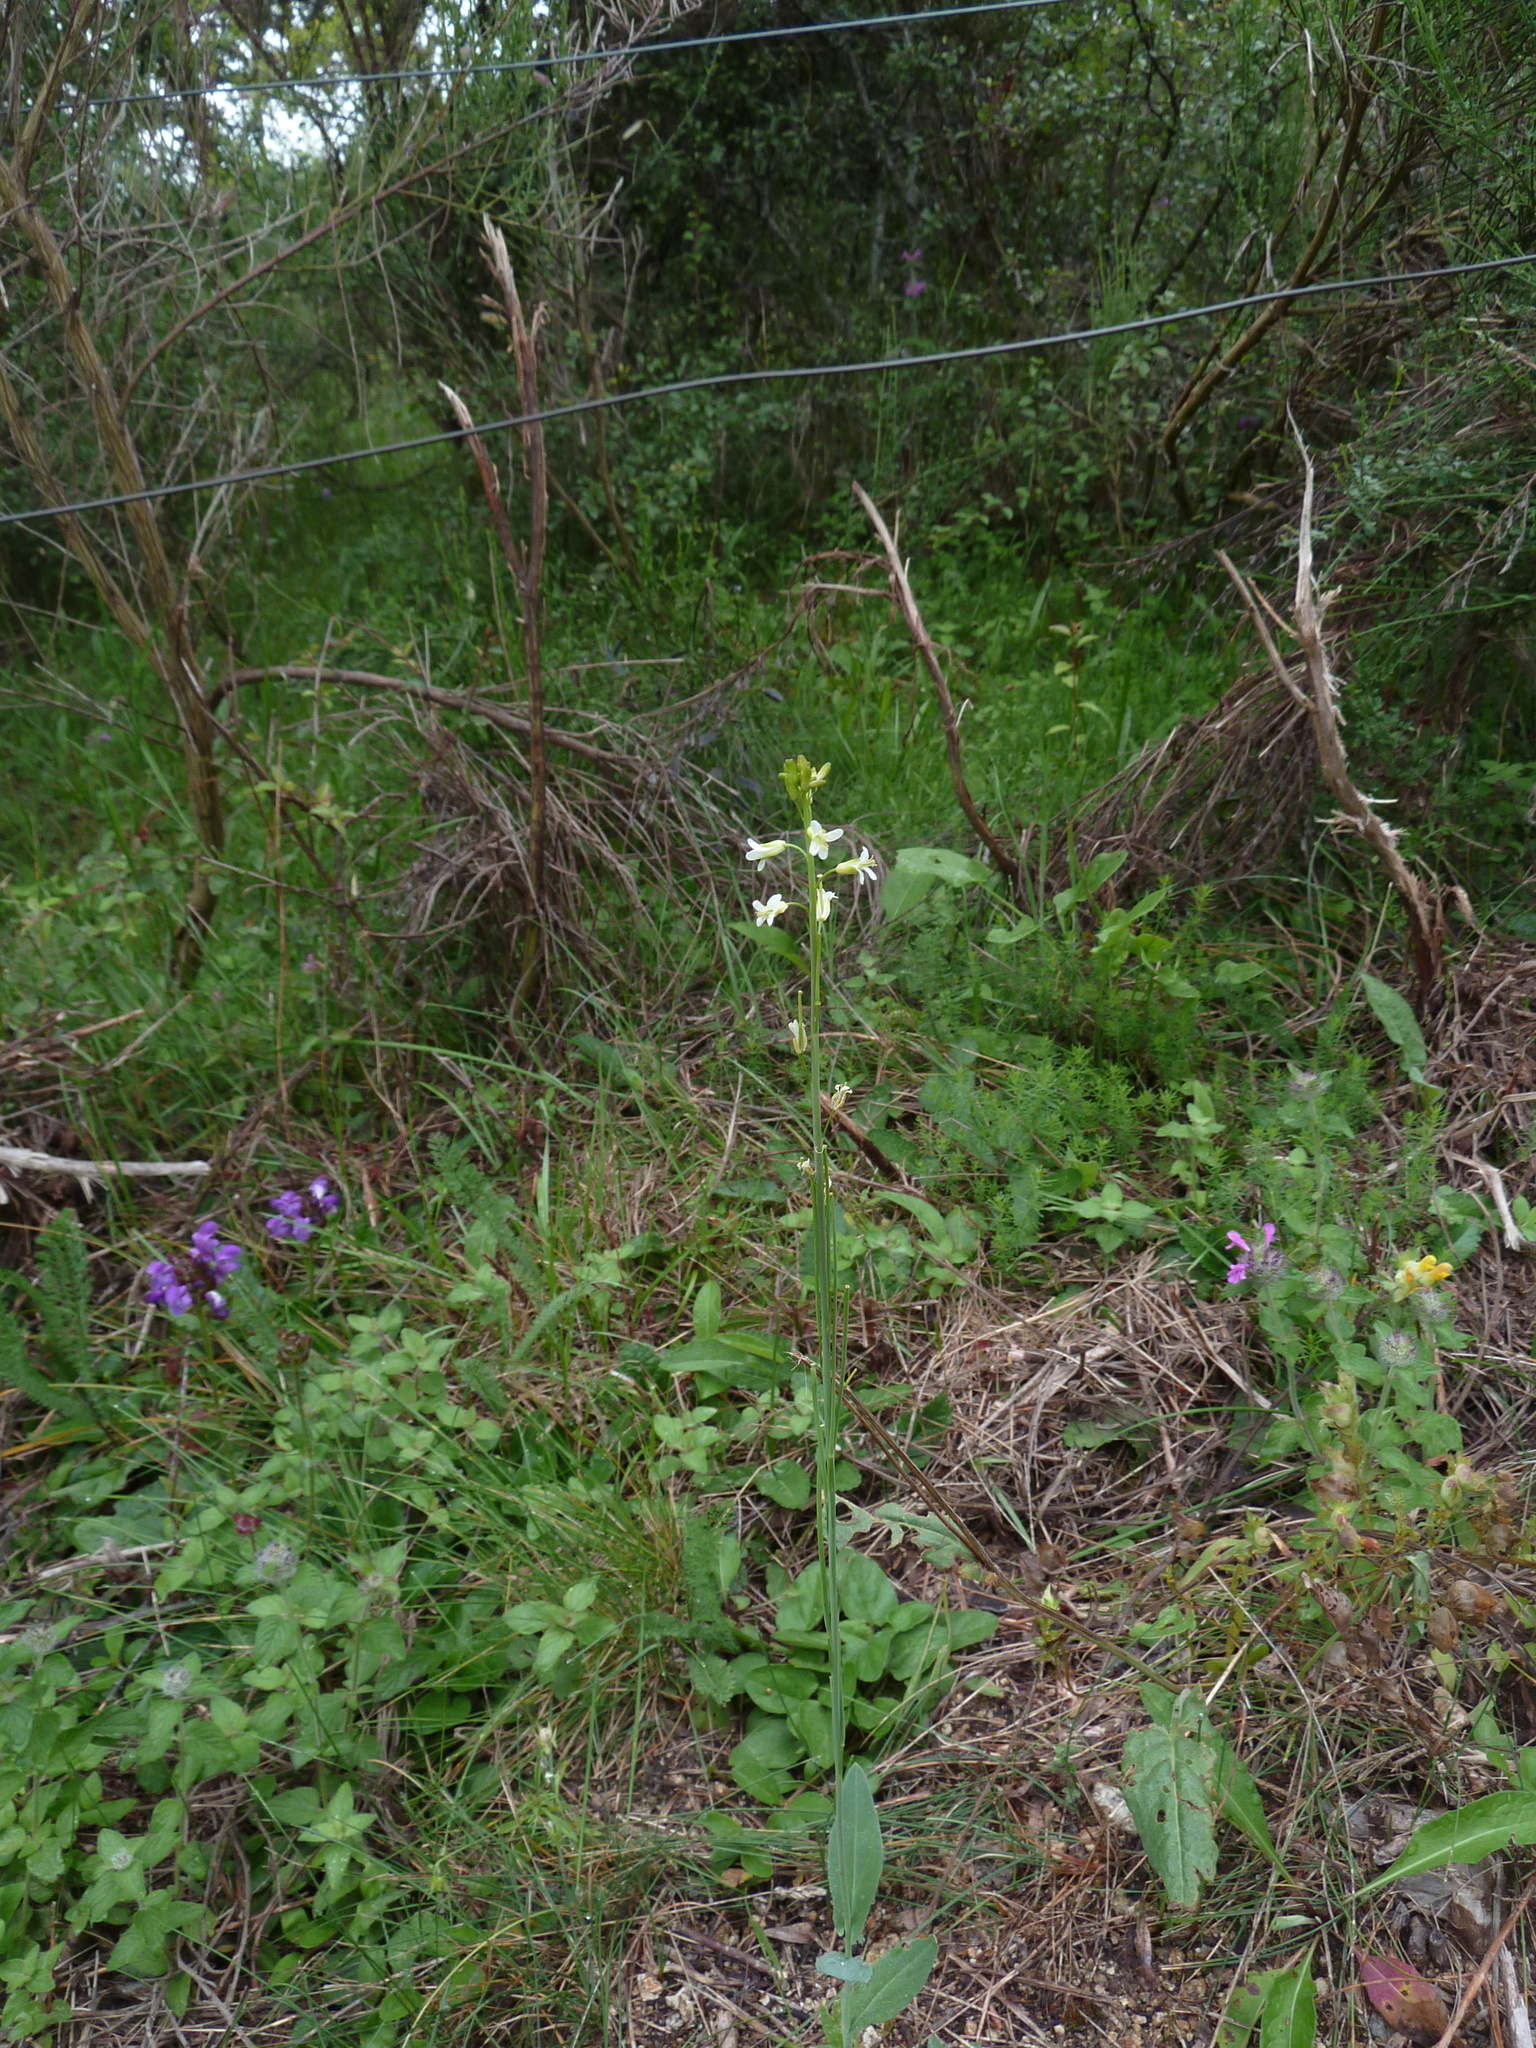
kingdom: Plantae
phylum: Tracheophyta
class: Magnoliopsida
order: Brassicales
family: Brassicaceae
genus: Turritis
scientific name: Turritis glabra
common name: Tower rockcress
